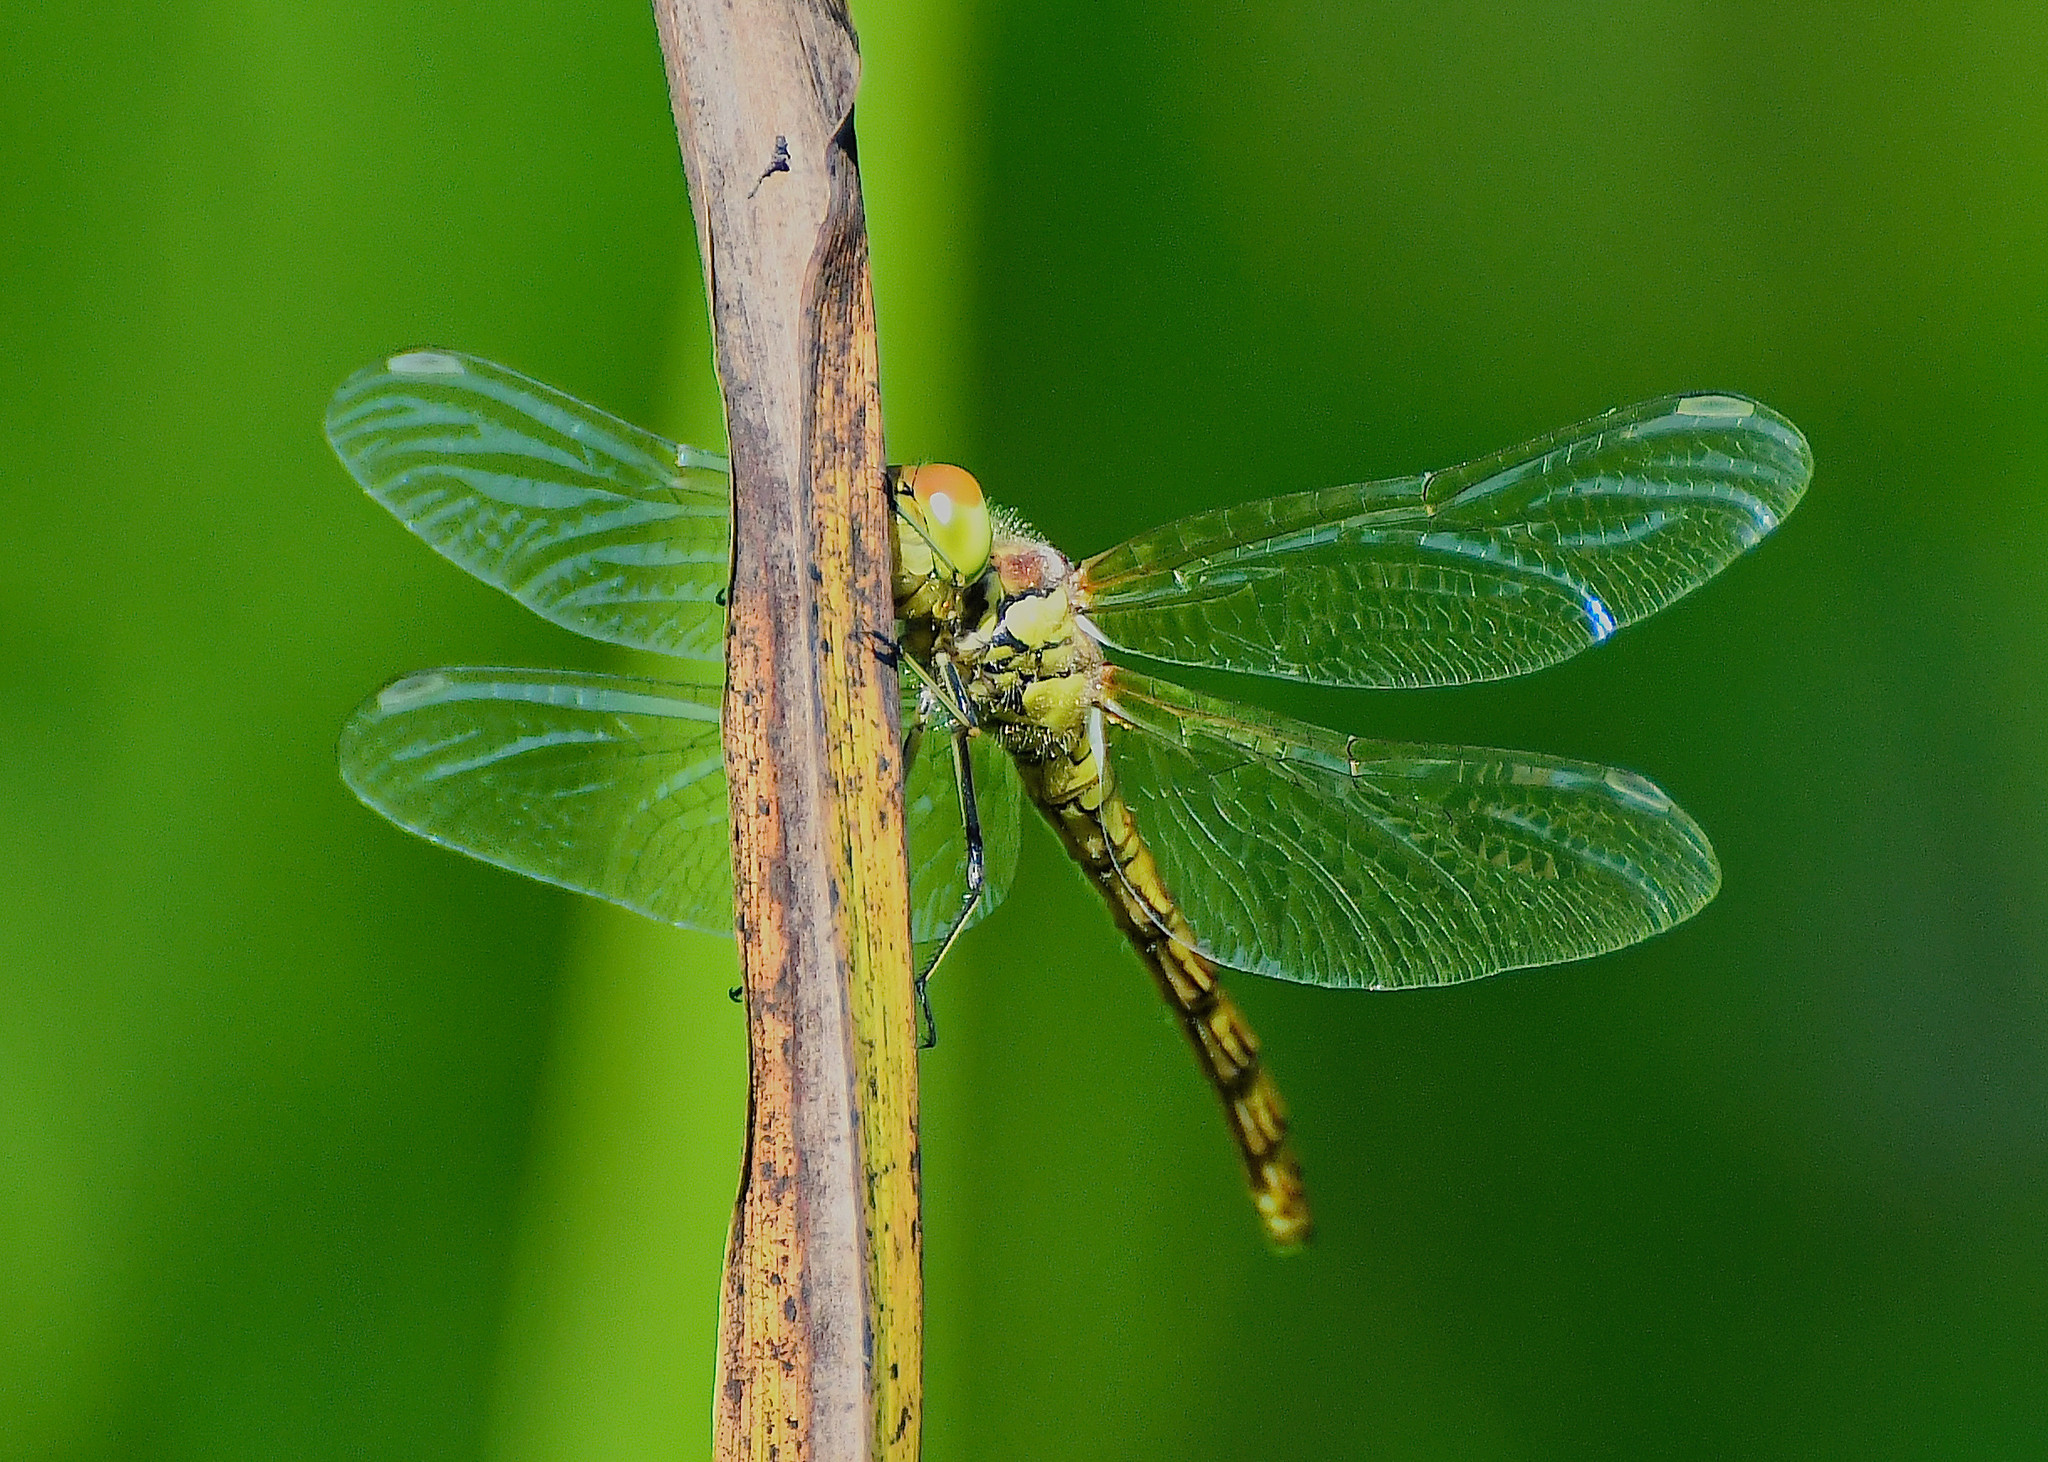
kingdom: Animalia
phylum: Arthropoda
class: Insecta
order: Odonata
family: Libellulidae
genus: Sympetrum
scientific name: Sympetrum striolatum
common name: Common darter
